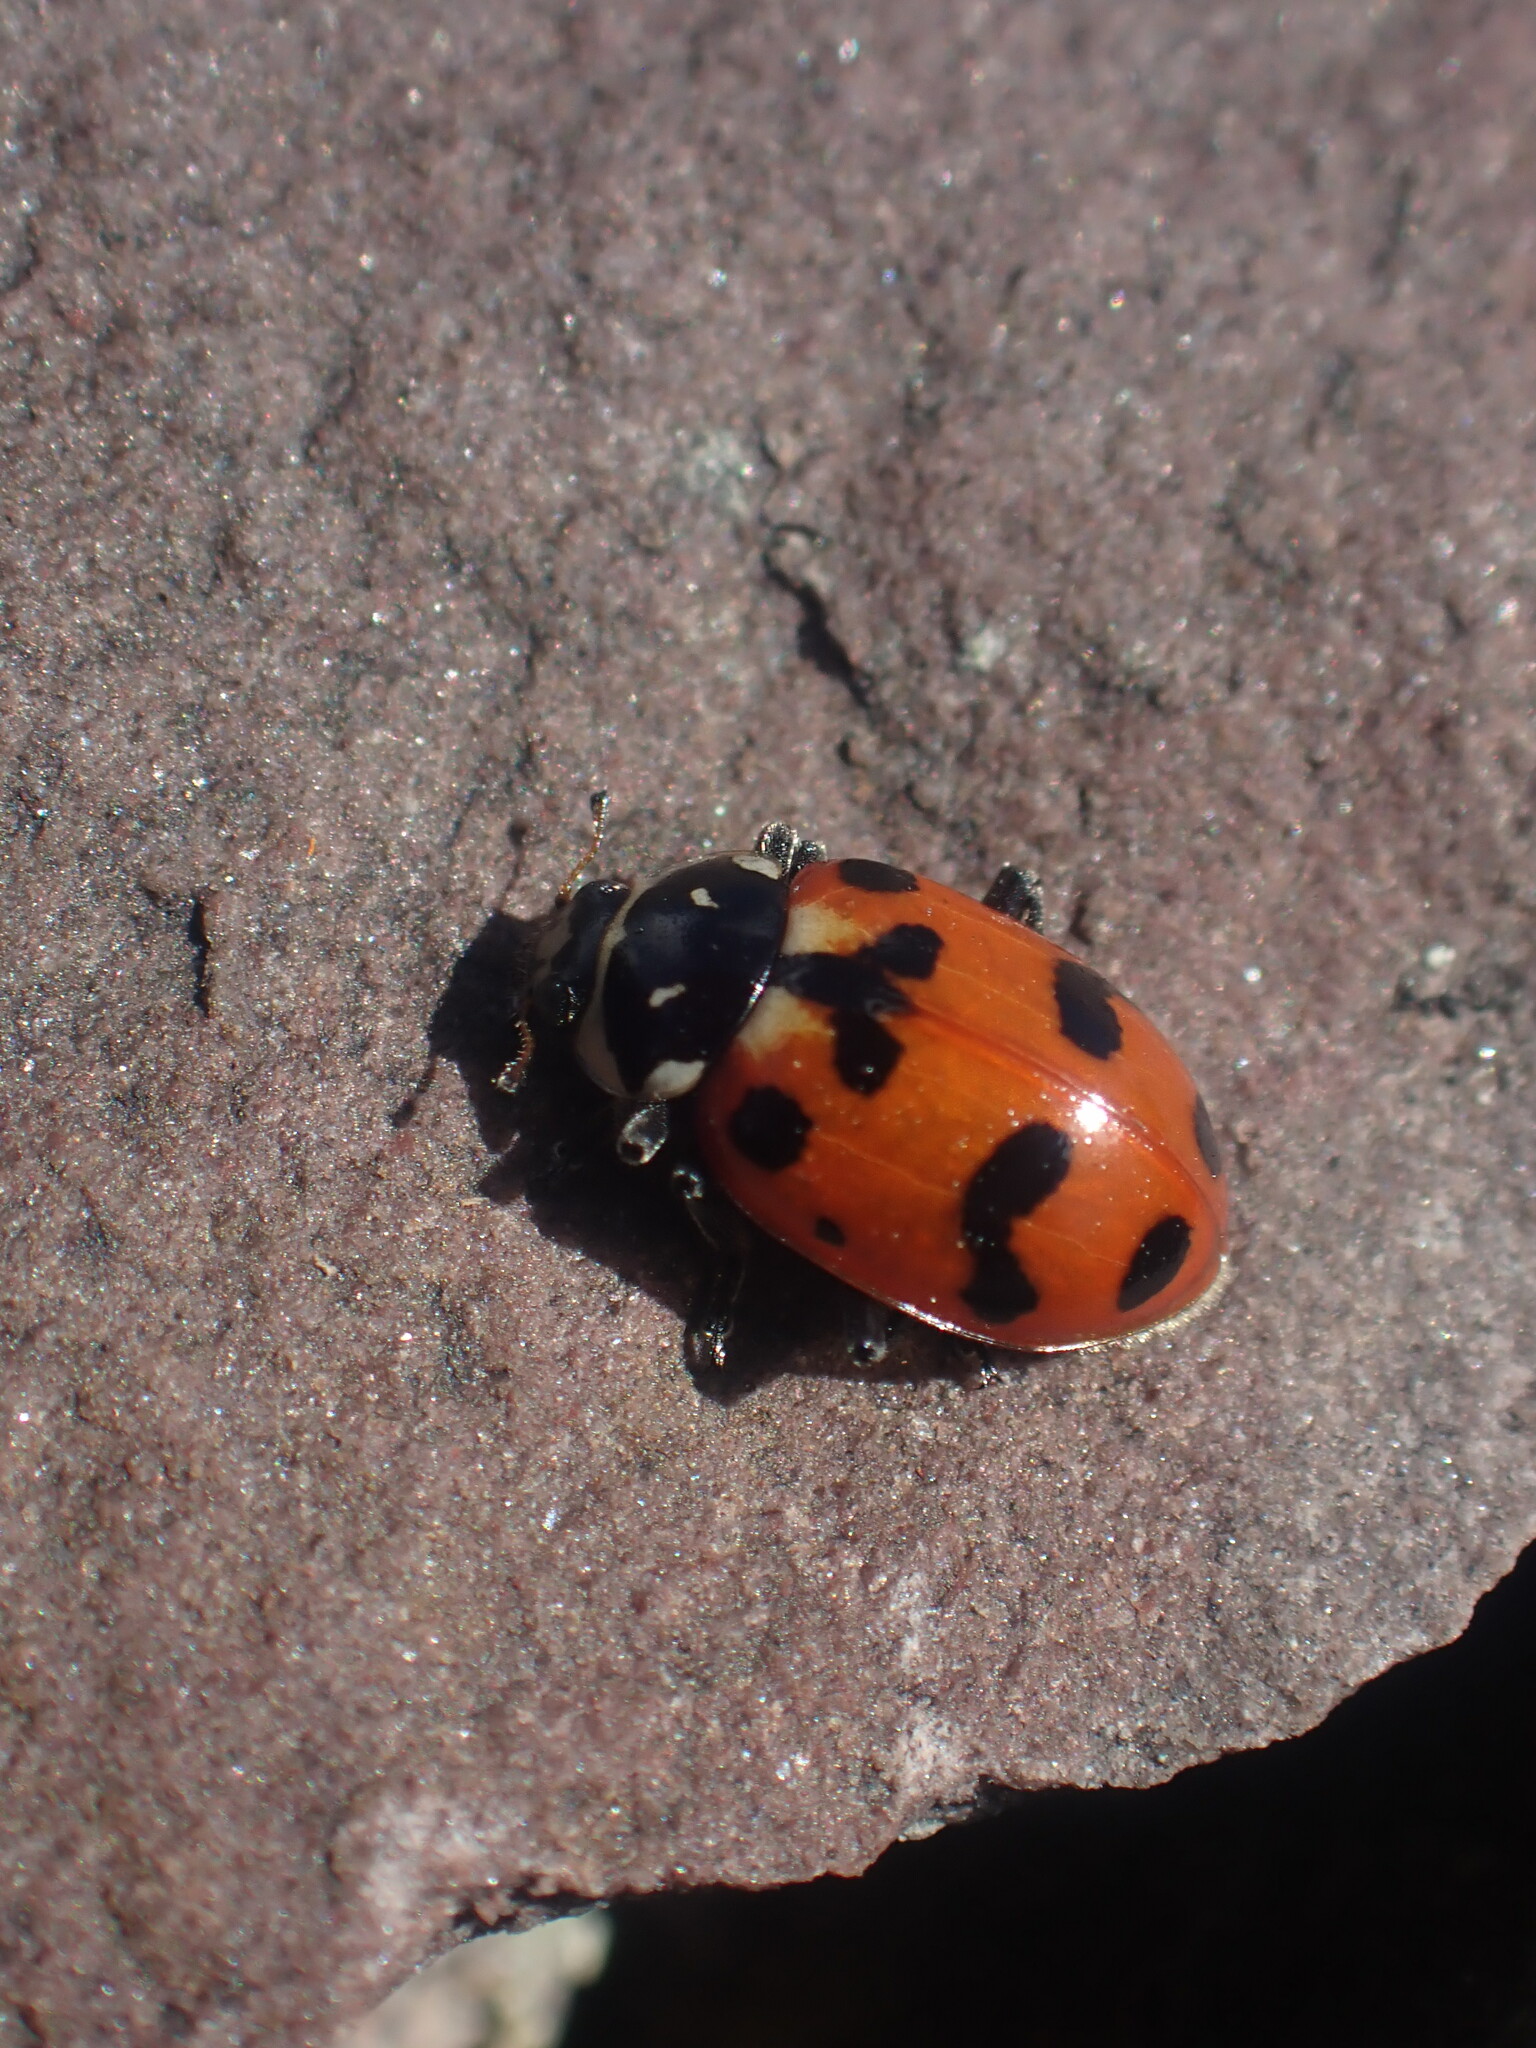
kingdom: Animalia
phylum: Arthropoda
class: Insecta
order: Coleoptera
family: Coccinellidae
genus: Hippodamia
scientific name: Hippodamia caseyi
